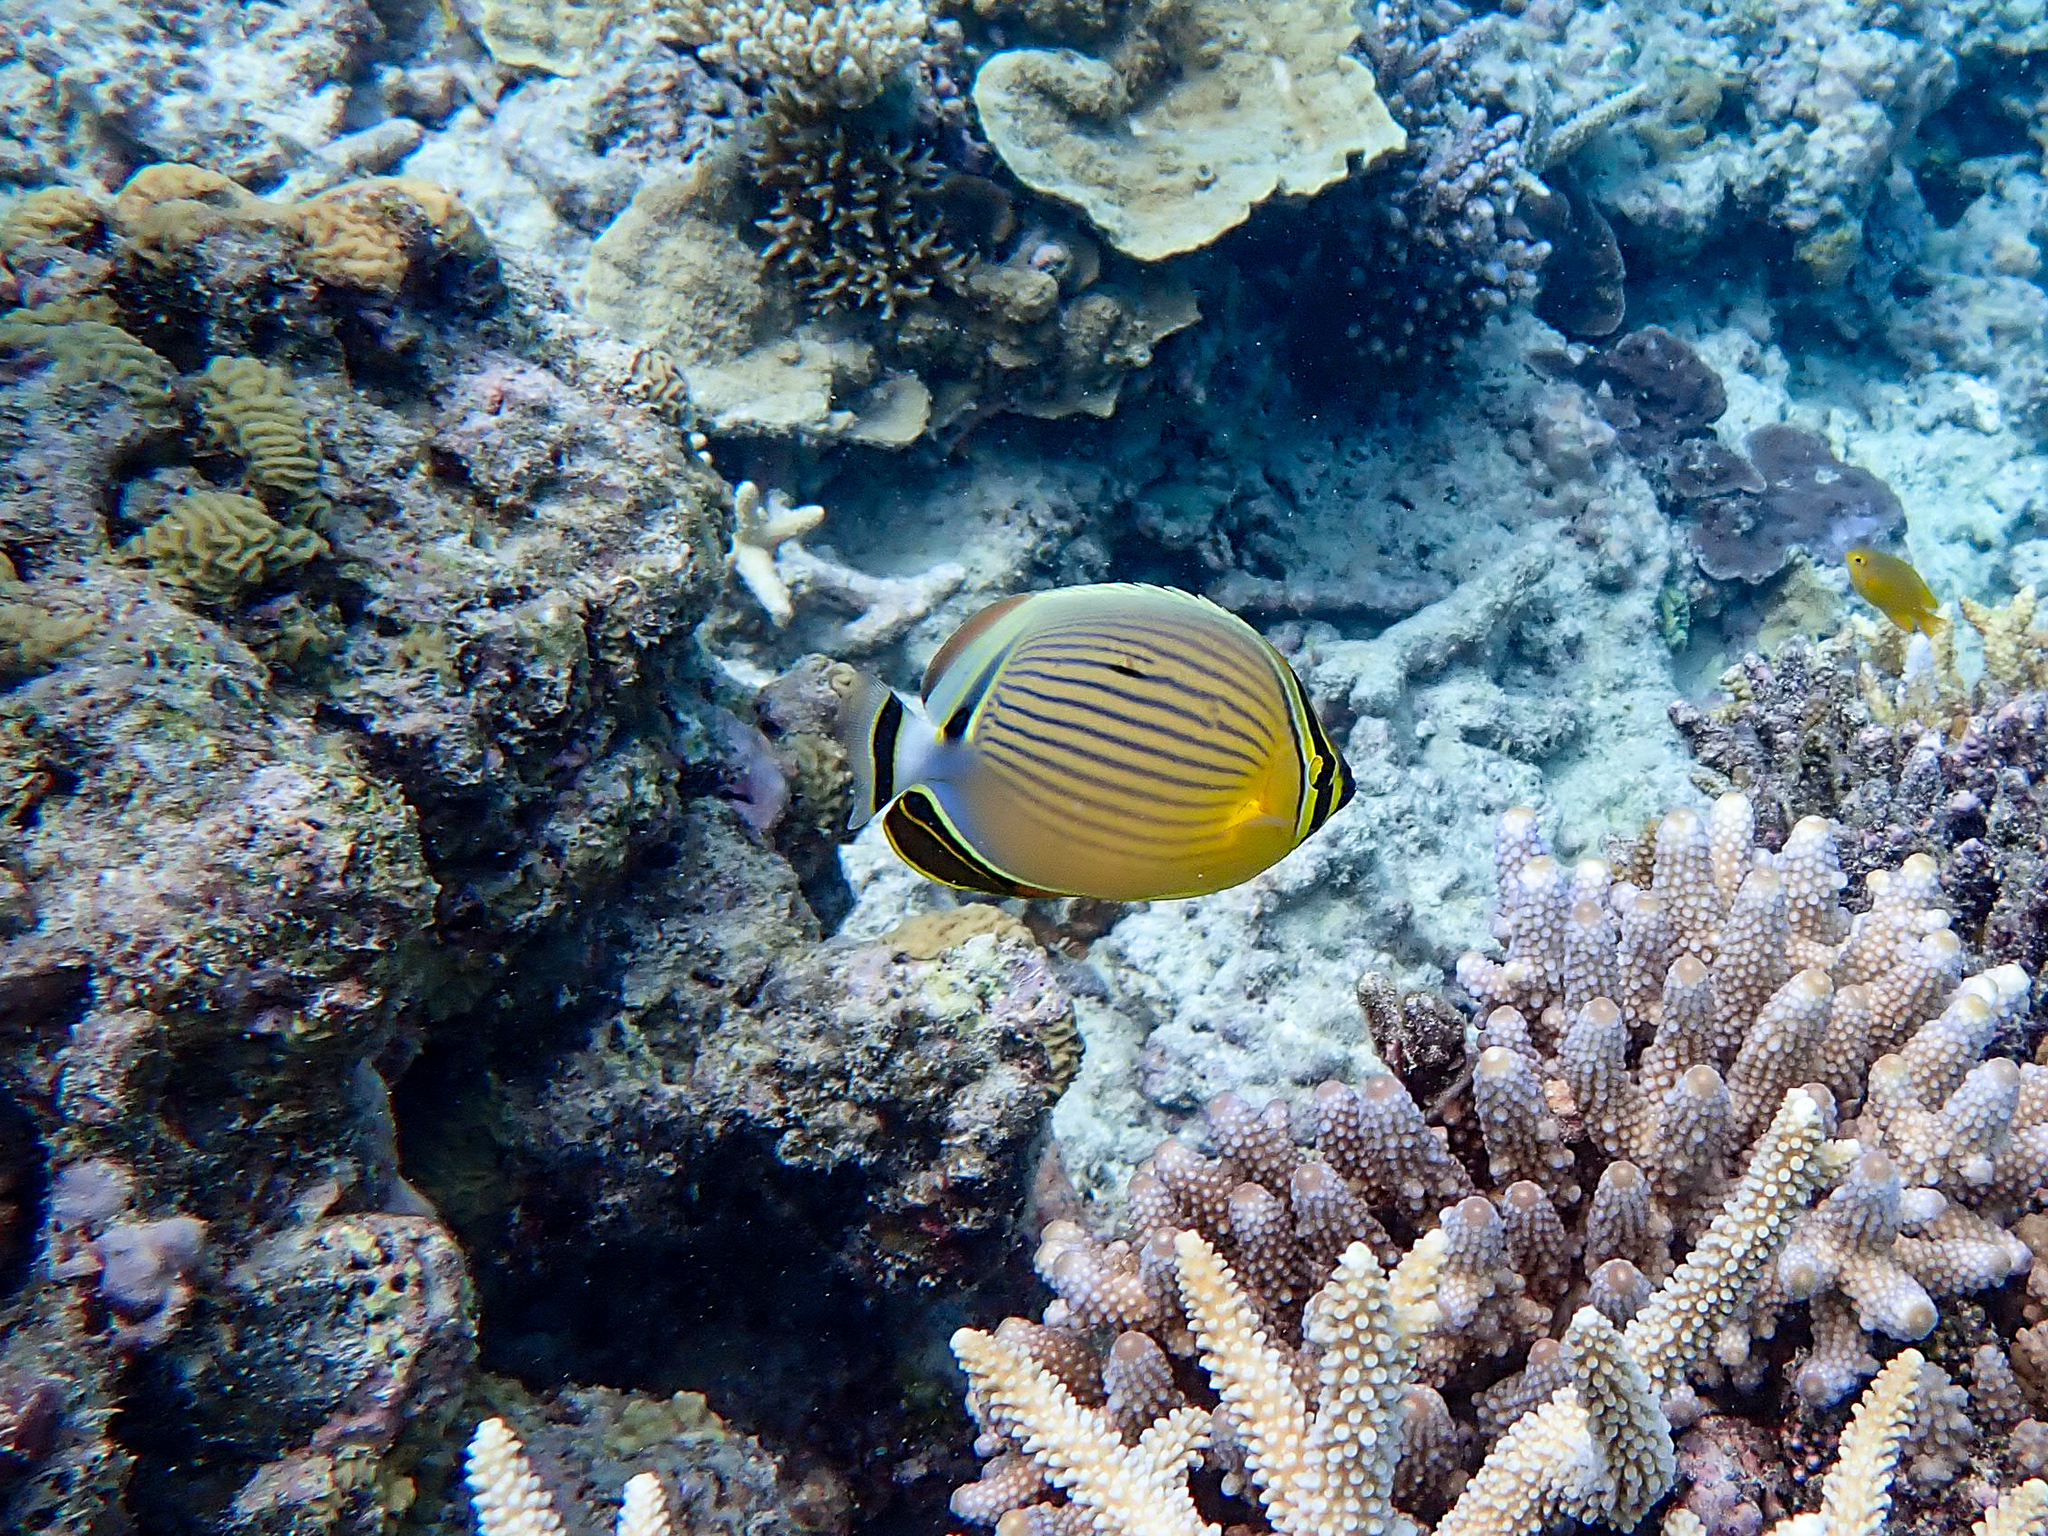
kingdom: Animalia
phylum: Chordata
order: Perciformes
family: Chaetodontidae
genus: Chaetodon
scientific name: Chaetodon lunulatus
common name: Redfin butterflyfish
